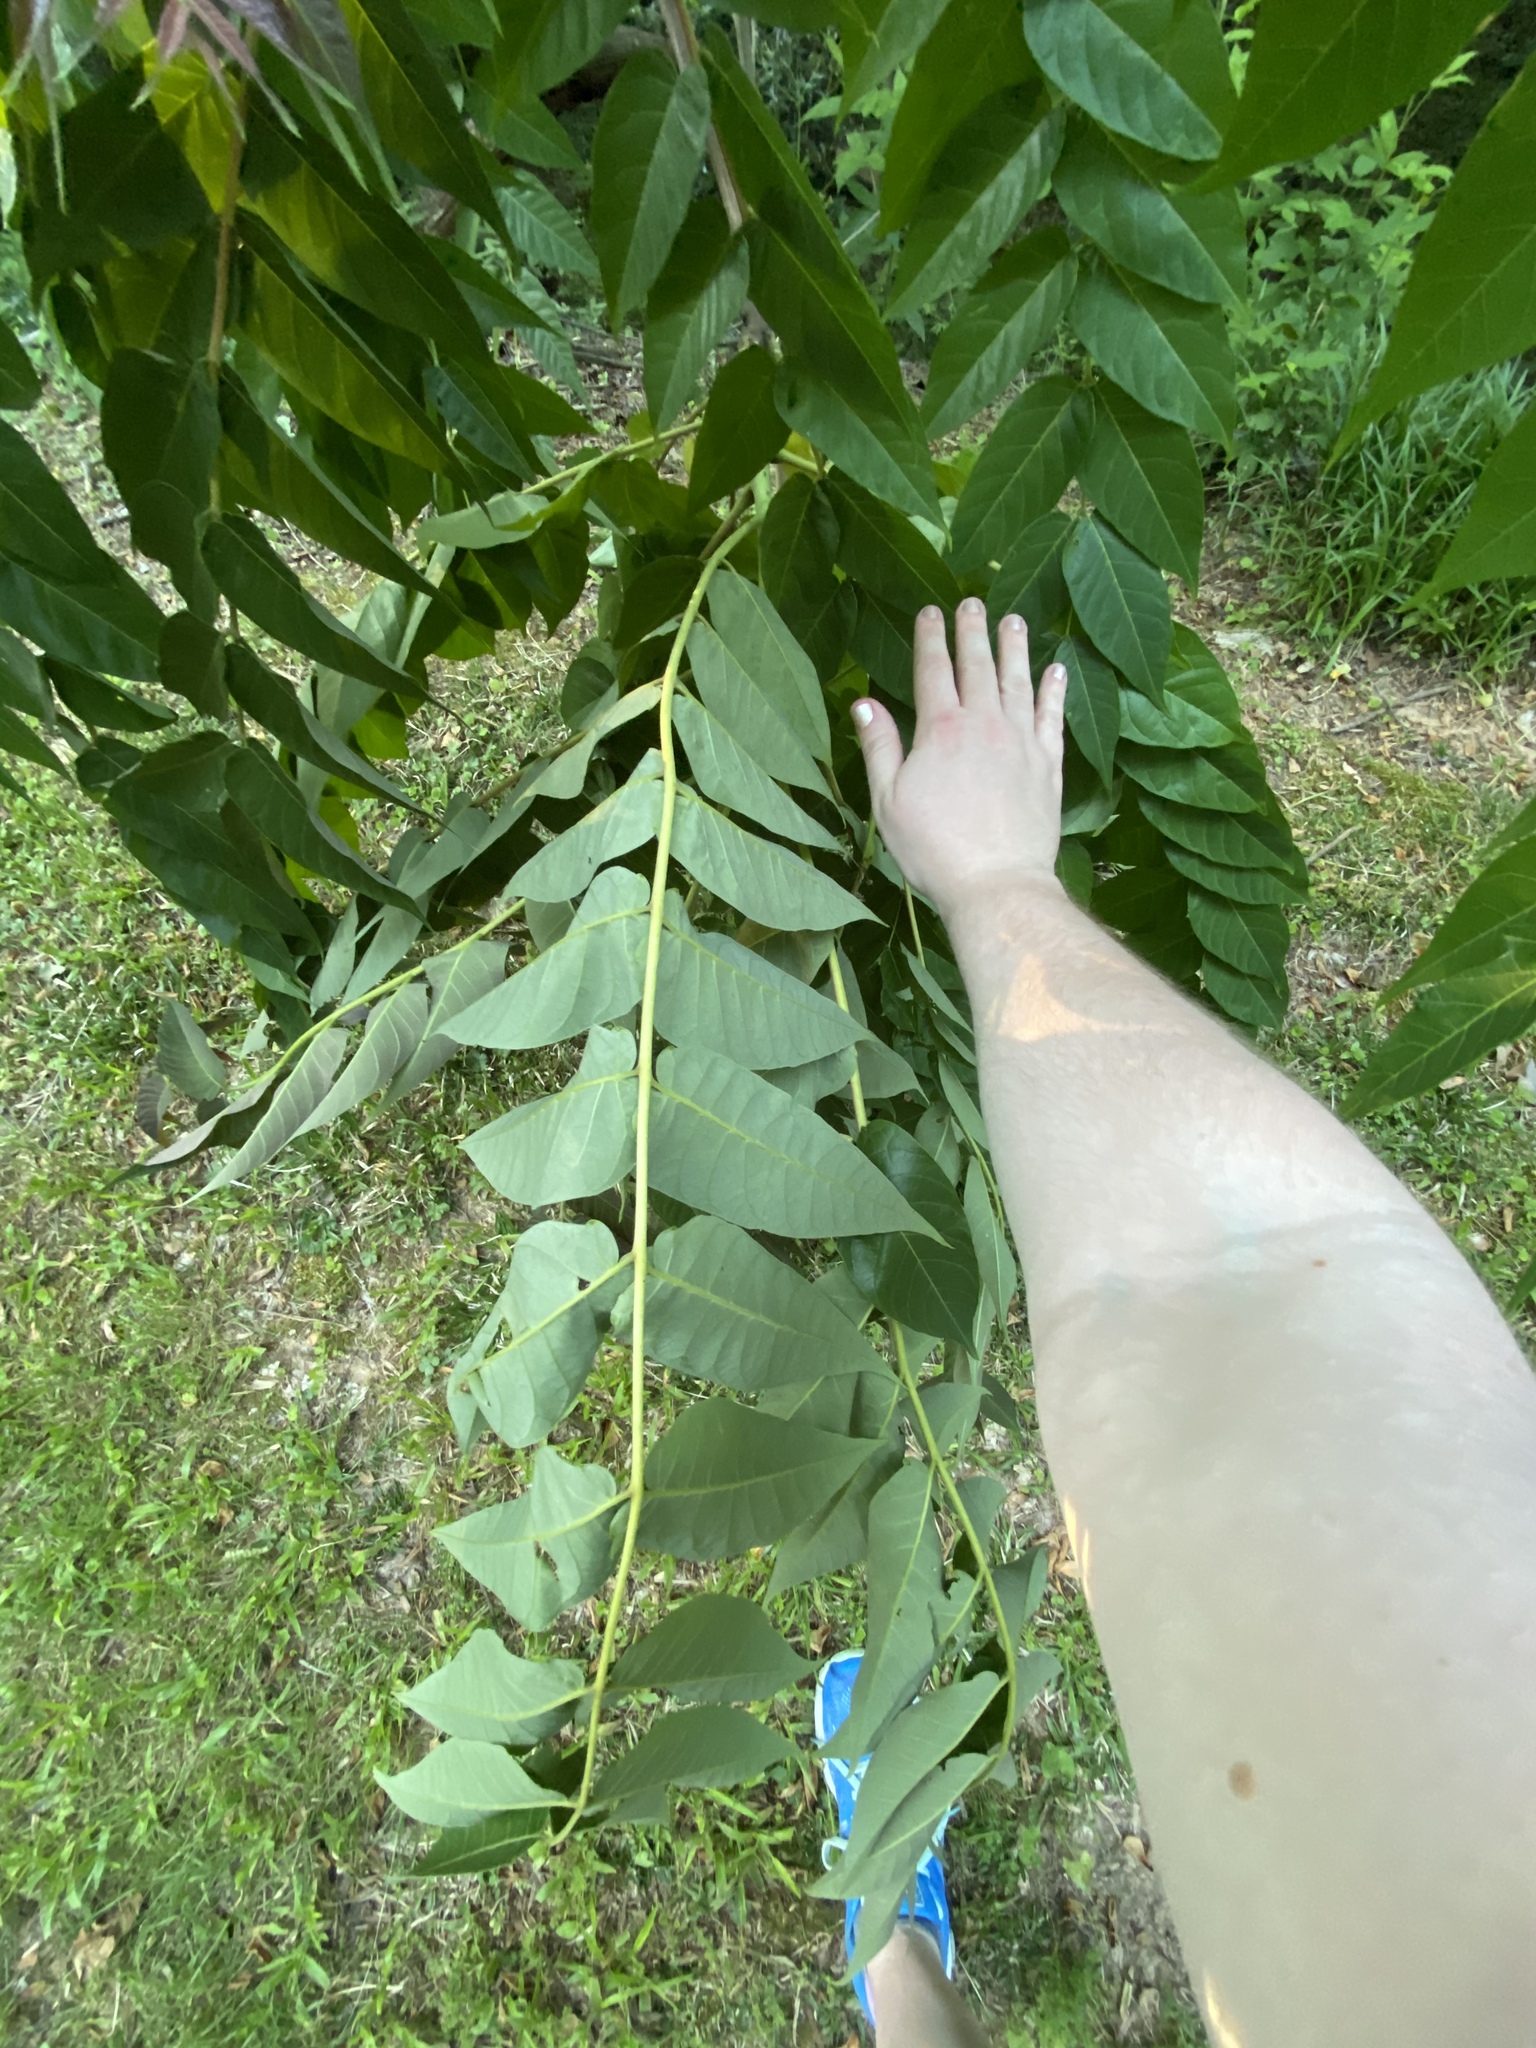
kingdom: Plantae
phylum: Tracheophyta
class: Magnoliopsida
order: Sapindales
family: Simaroubaceae
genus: Ailanthus
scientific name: Ailanthus altissima
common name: Tree-of-heaven
